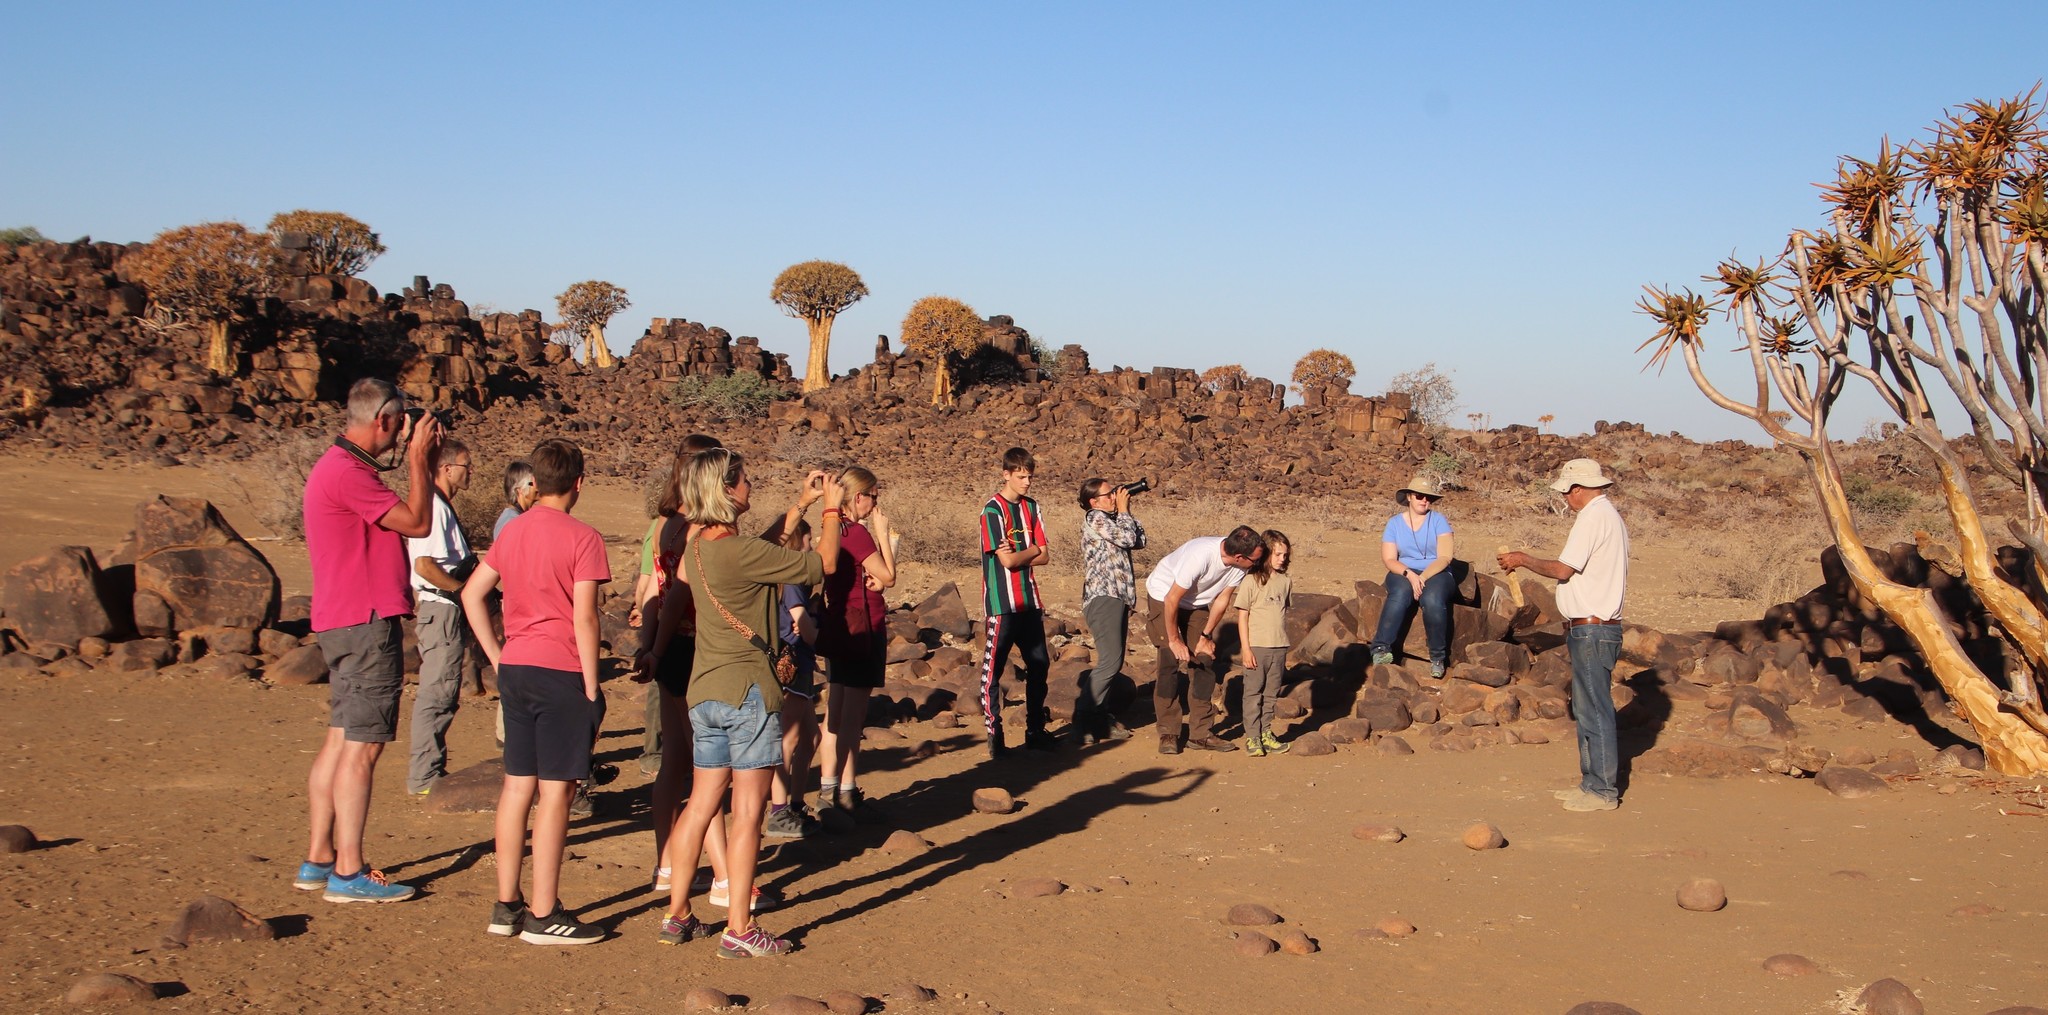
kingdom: Plantae
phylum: Tracheophyta
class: Liliopsida
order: Asparagales
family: Asphodelaceae
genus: Aloidendron
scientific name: Aloidendron dichotomum
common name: Quiver tree
